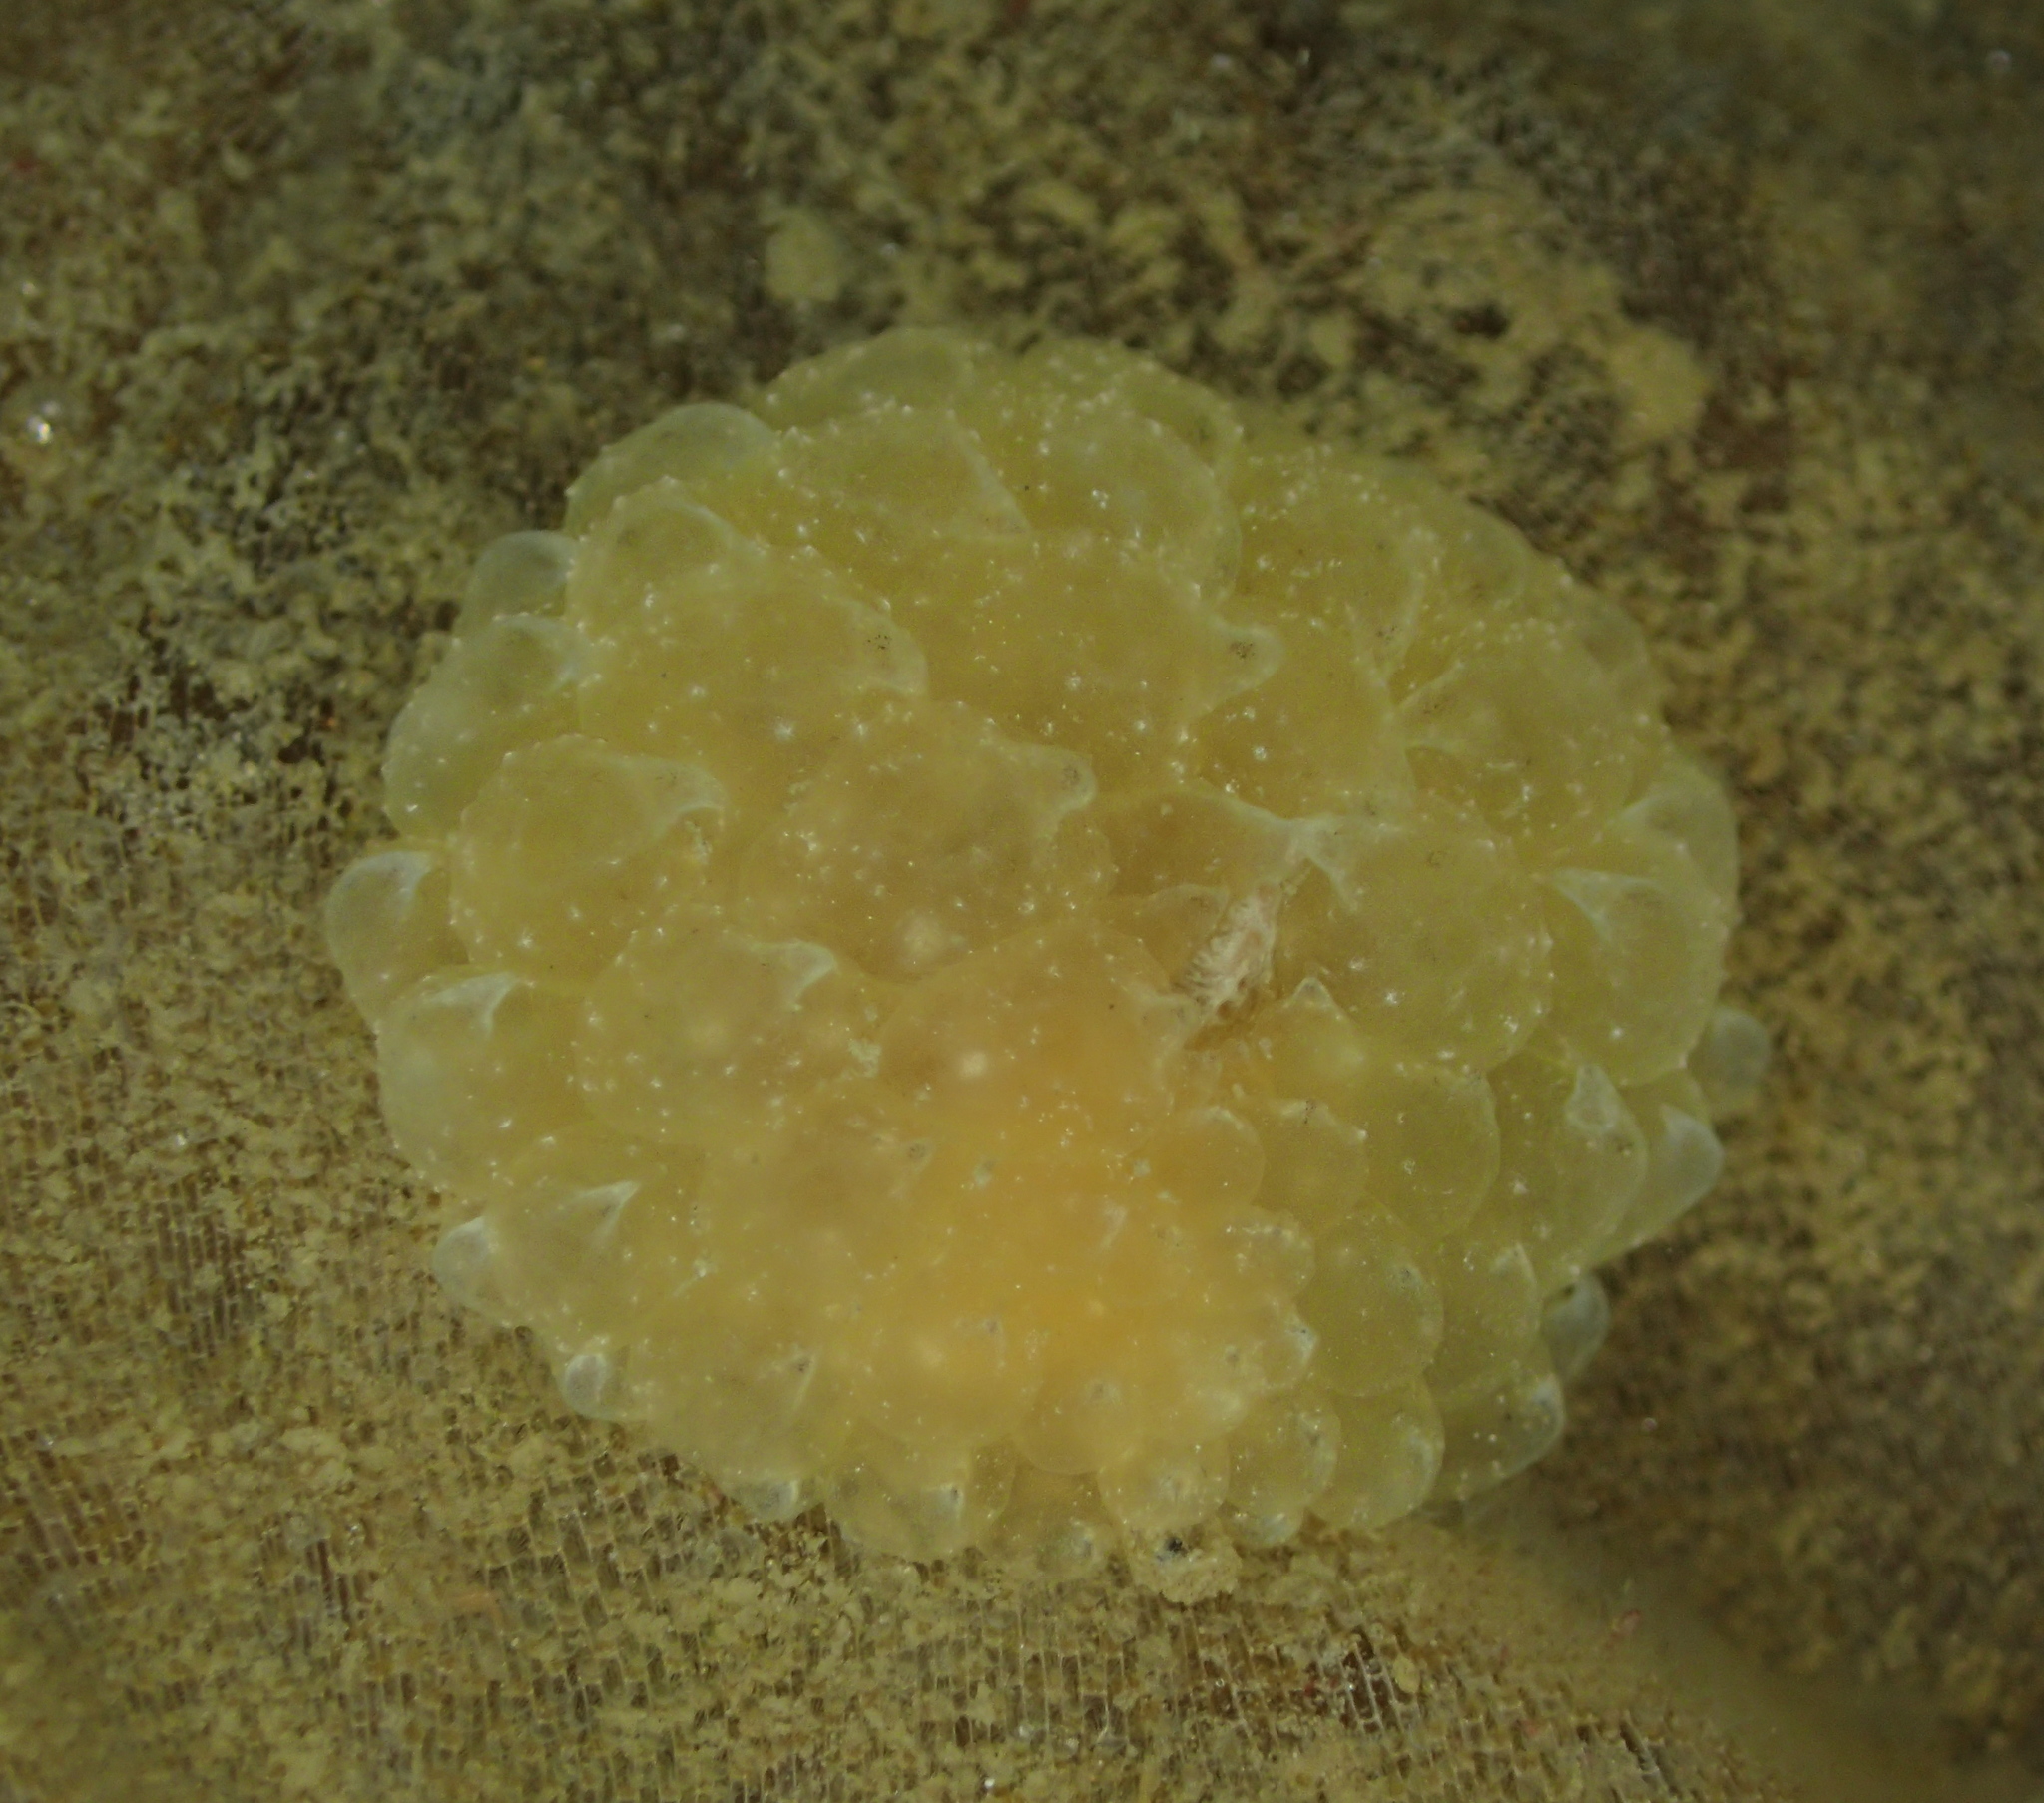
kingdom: Animalia
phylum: Mollusca
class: Gastropoda
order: Nudibranchia
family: Janolidae
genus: Galeojanolus
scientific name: Galeojanolus ionnae
